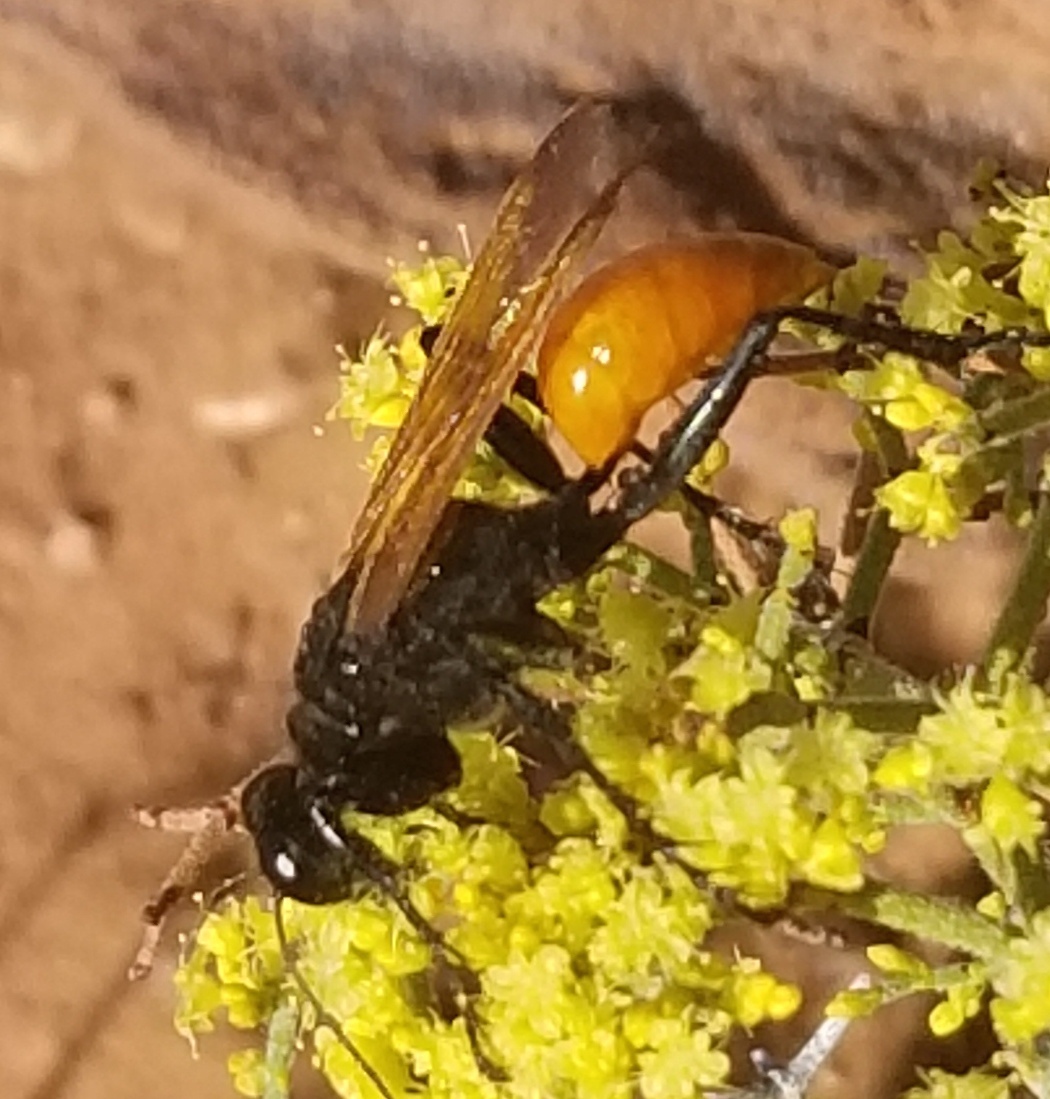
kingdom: Animalia
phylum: Arthropoda
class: Insecta
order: Hymenoptera
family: Sphecidae
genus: Palmodes
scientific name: Palmodes praestans
